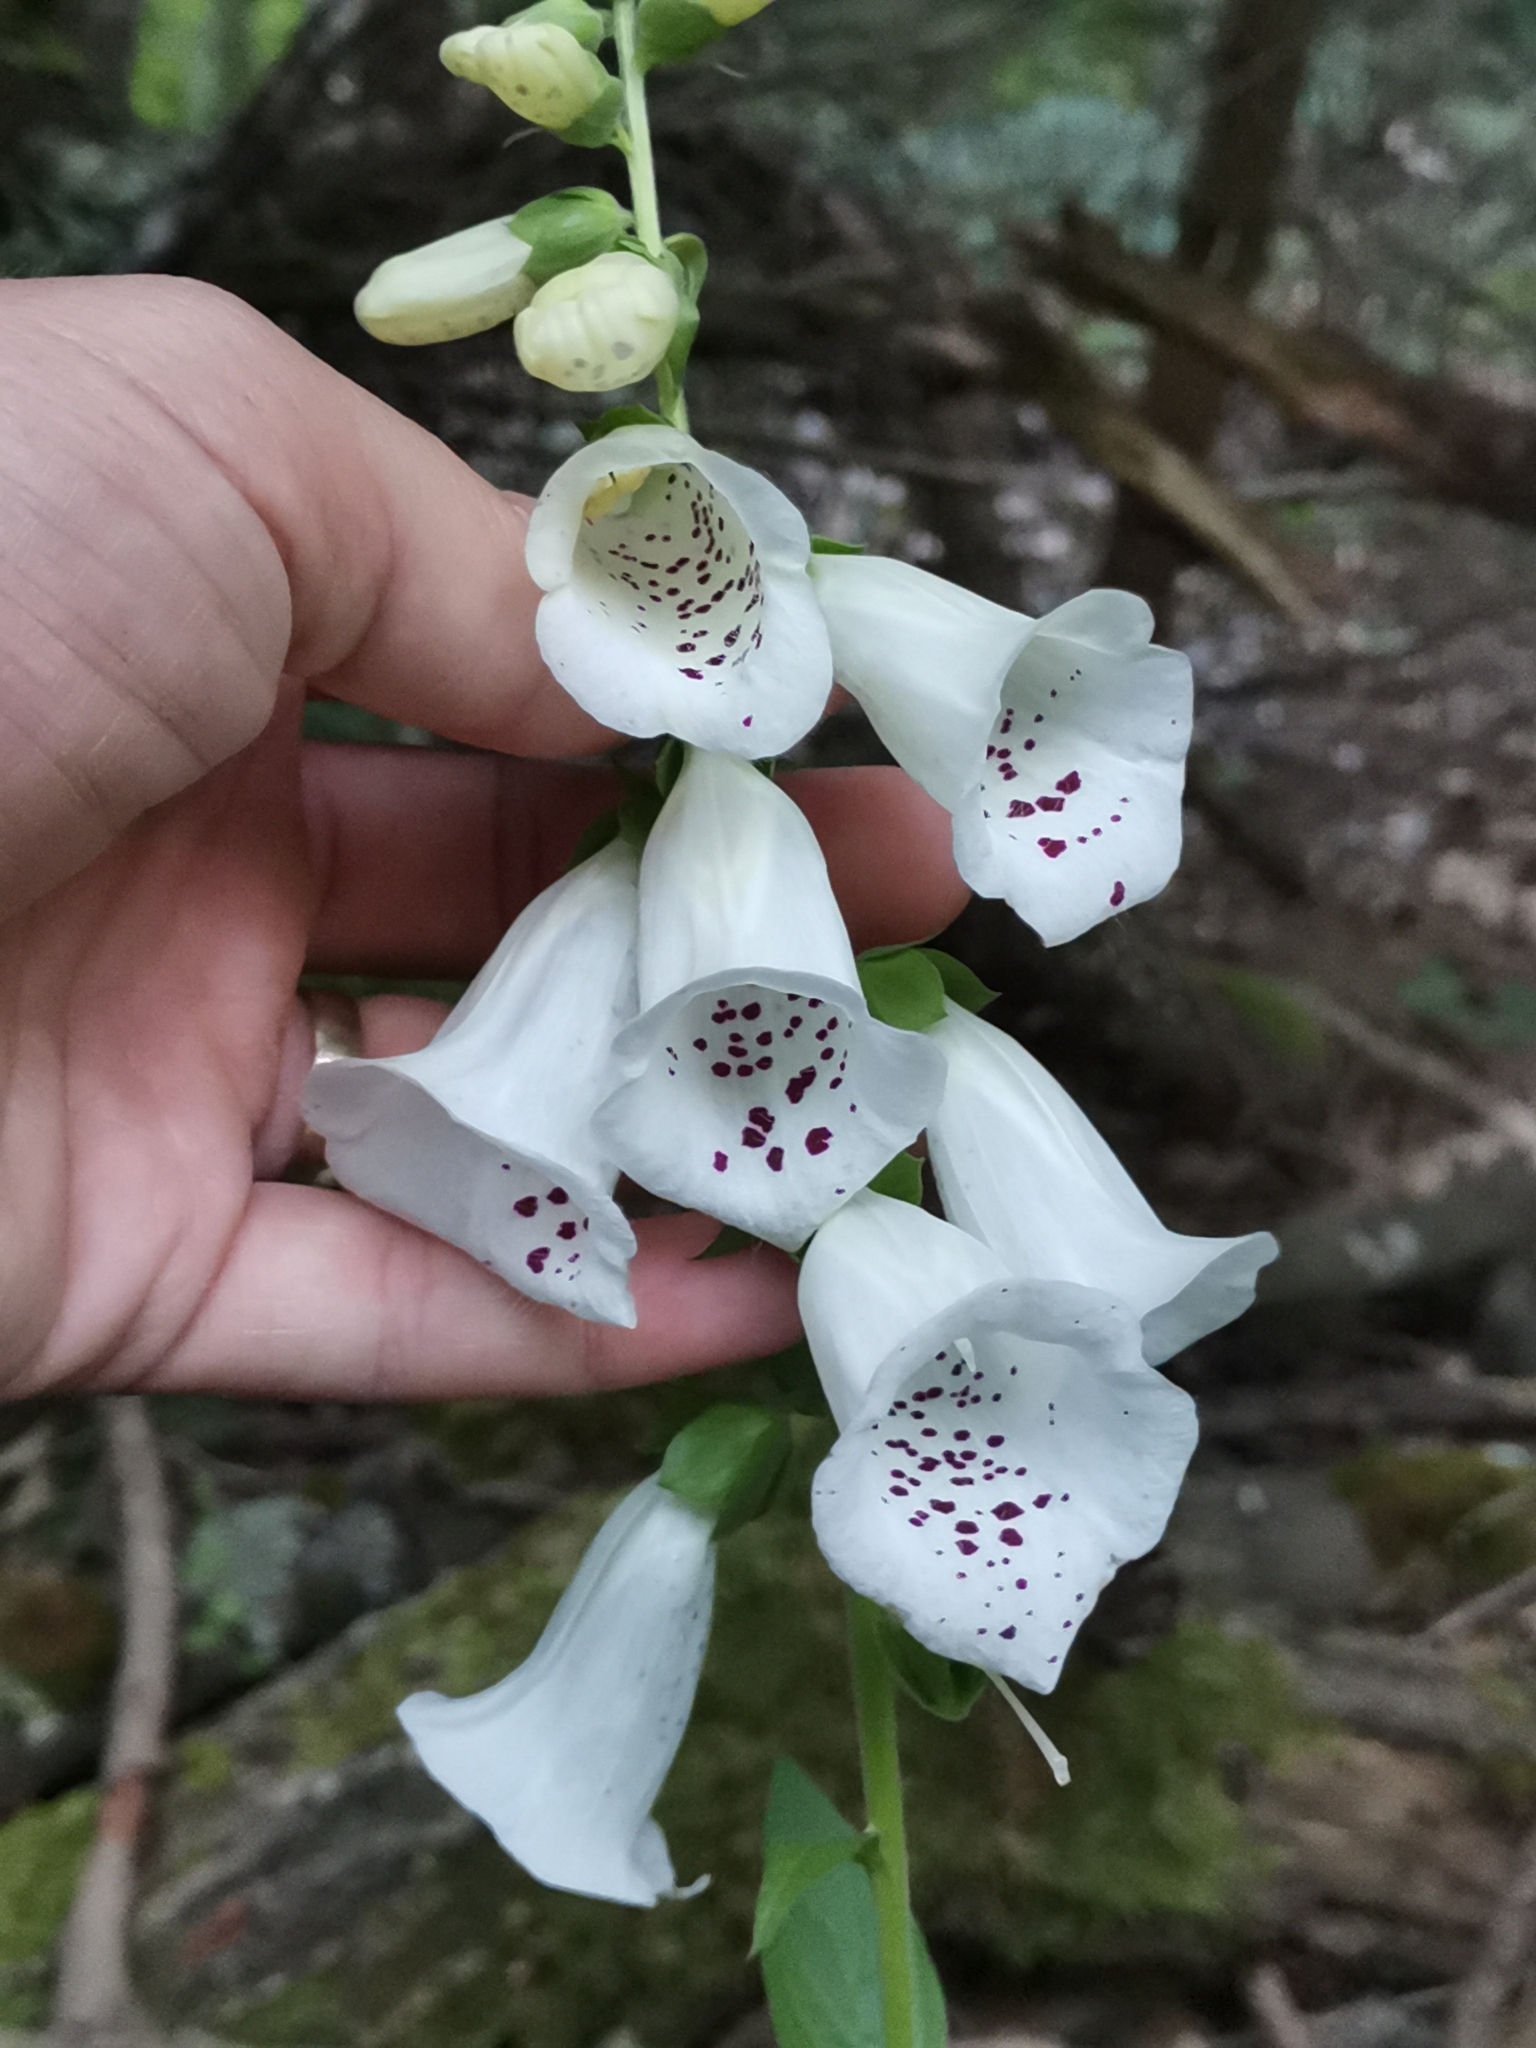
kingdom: Plantae
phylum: Tracheophyta
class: Magnoliopsida
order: Lamiales
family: Plantaginaceae
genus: Digitalis
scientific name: Digitalis purpurea
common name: Foxglove
